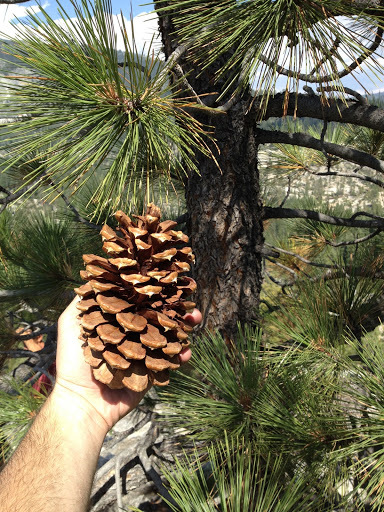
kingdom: Plantae
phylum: Tracheophyta
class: Pinopsida
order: Pinales
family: Pinaceae
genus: Pinus
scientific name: Pinus jeffreyi
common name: Jeffrey pine
